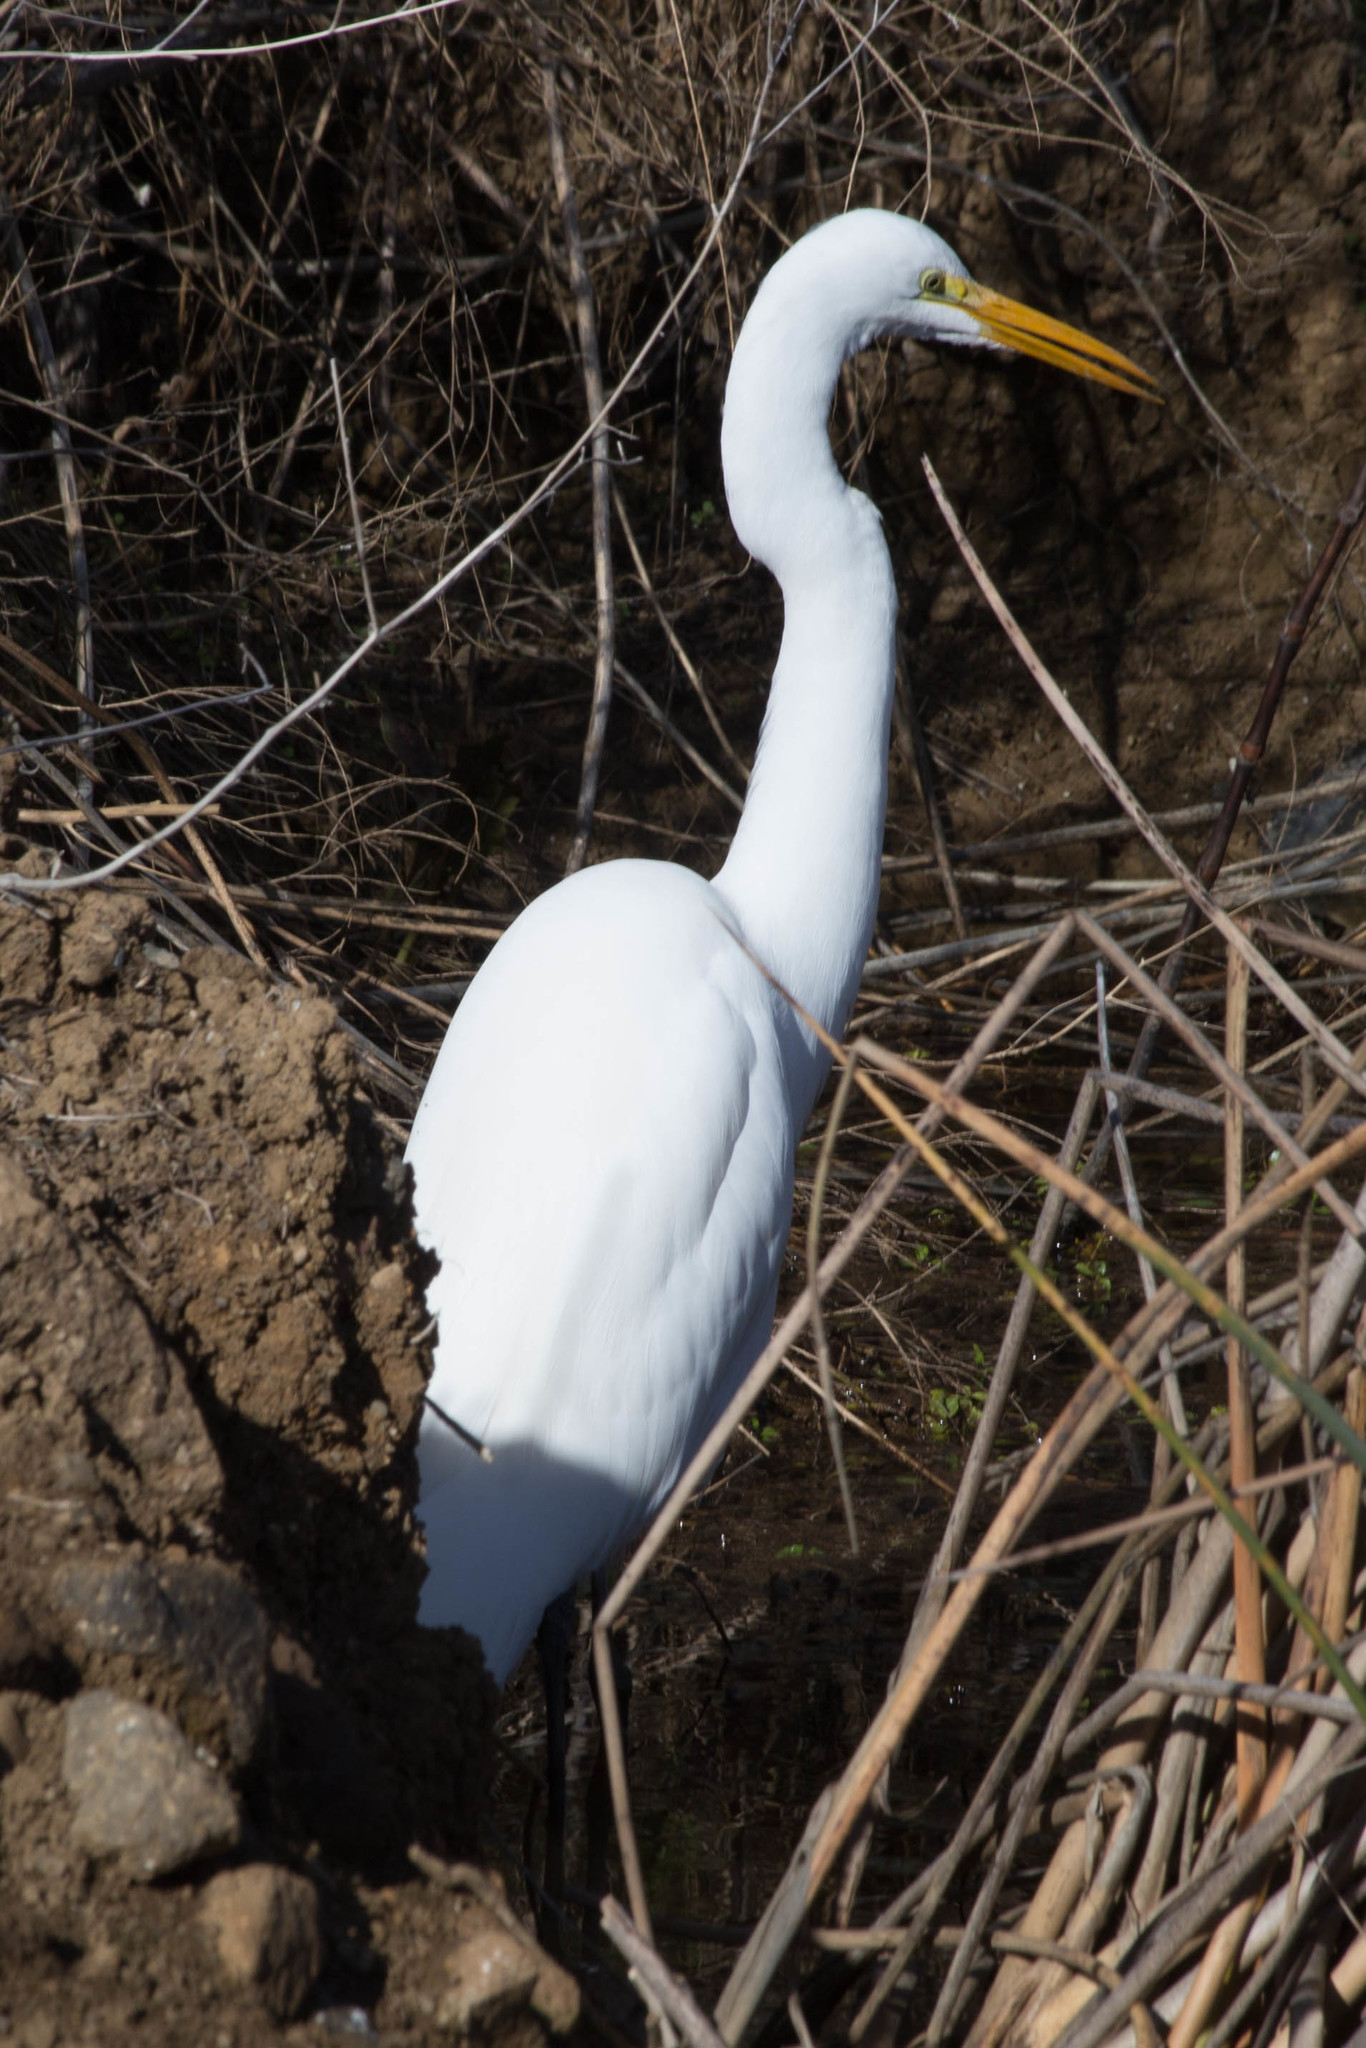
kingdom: Animalia
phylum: Chordata
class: Aves
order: Pelecaniformes
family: Ardeidae
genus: Ardea
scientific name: Ardea alba
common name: Great egret
